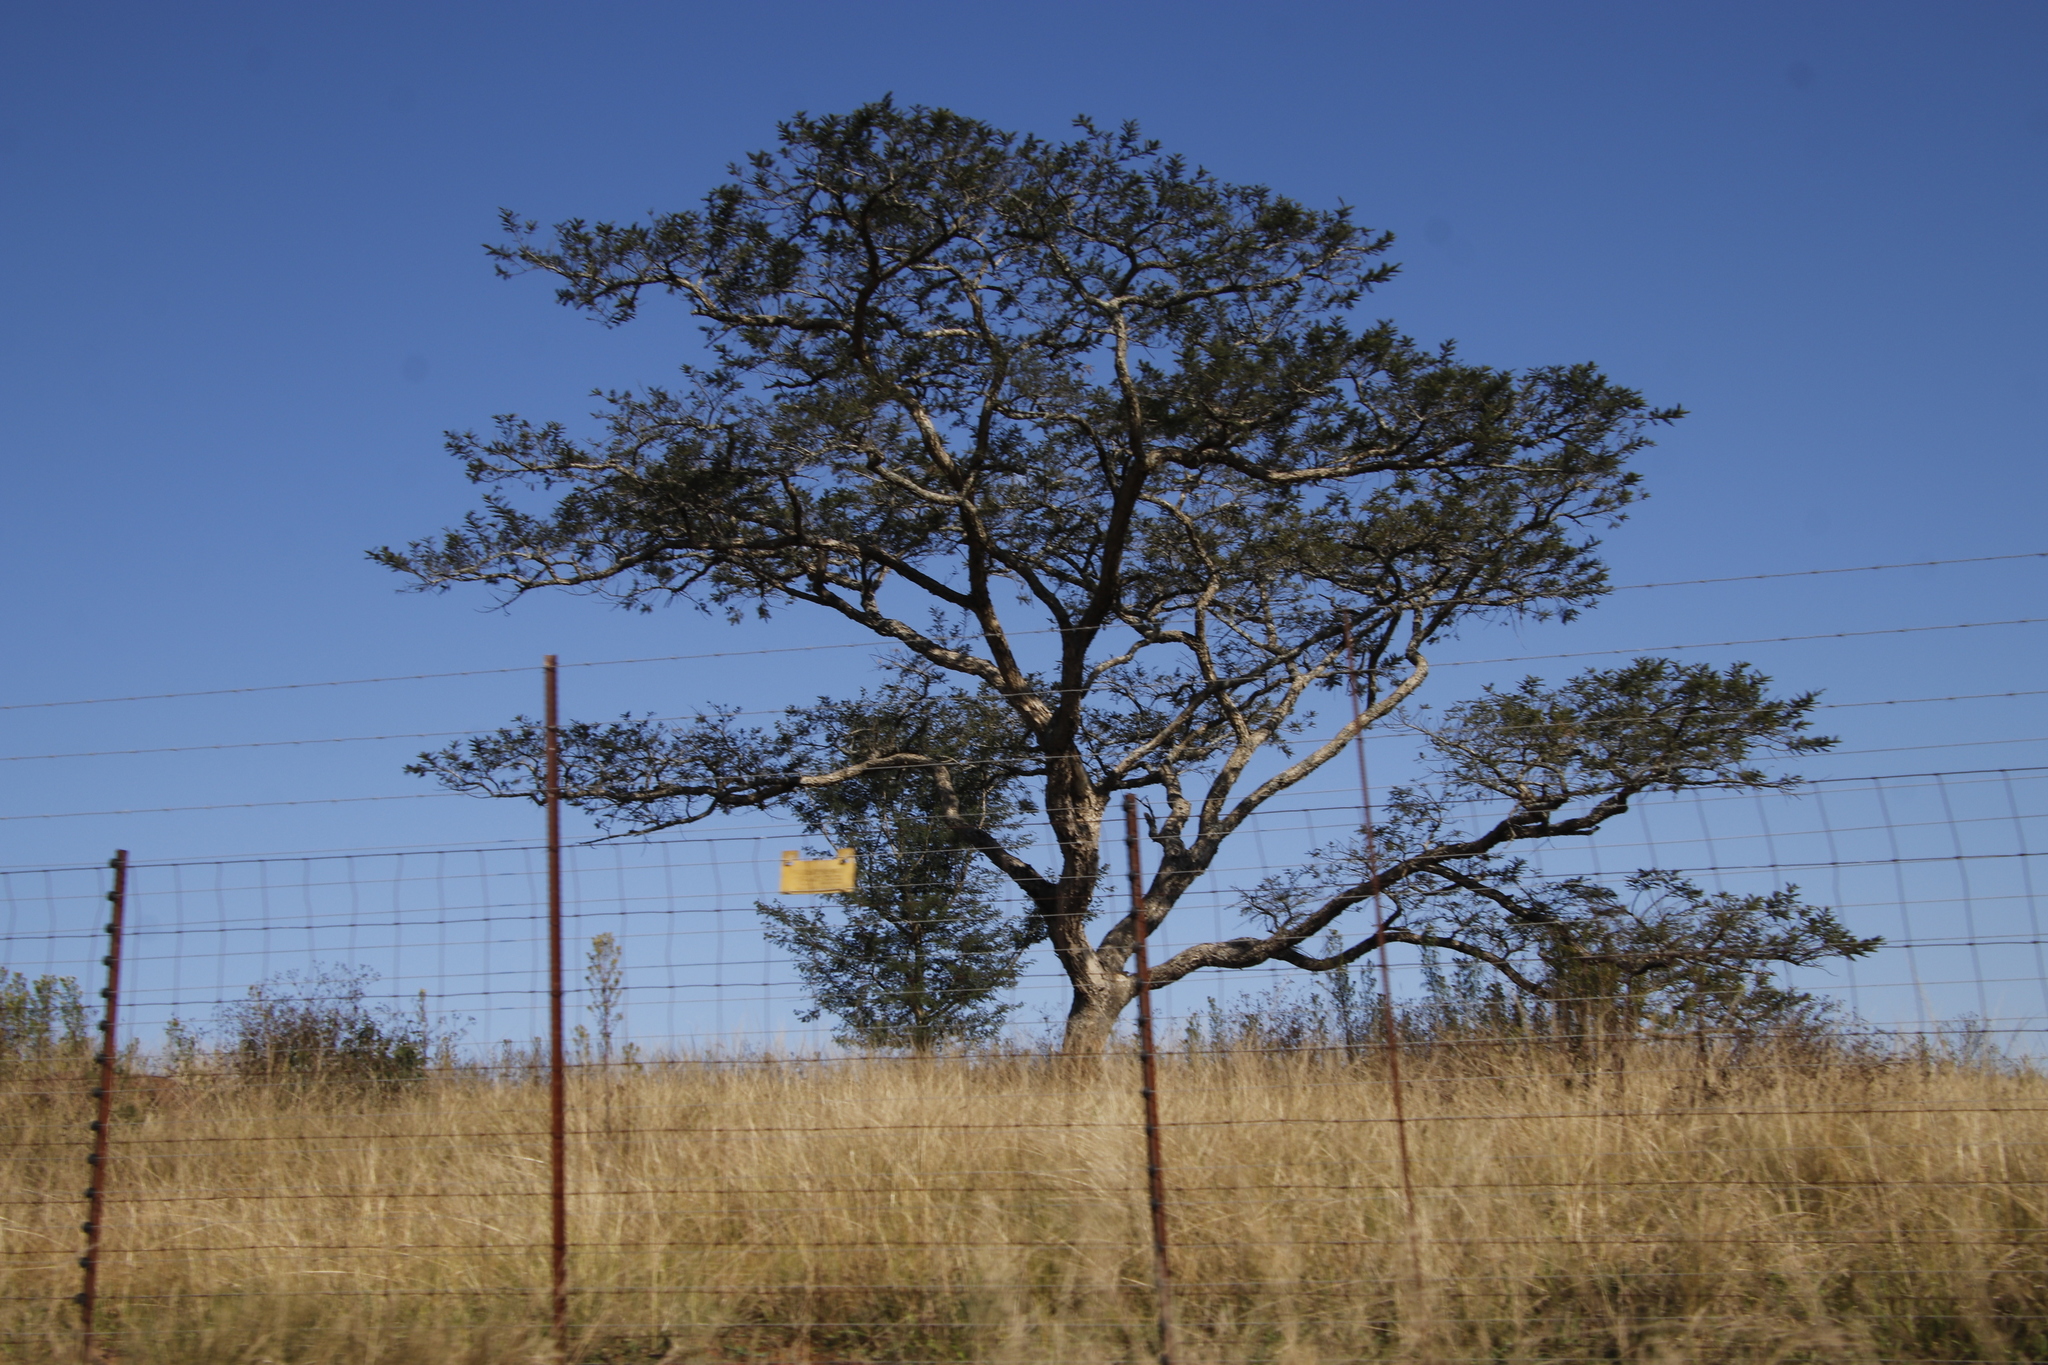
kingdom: Plantae
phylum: Tracheophyta
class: Magnoliopsida
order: Fabales
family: Fabaceae
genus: Vachellia
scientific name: Vachellia sieberiana
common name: Flat-topped thorn
